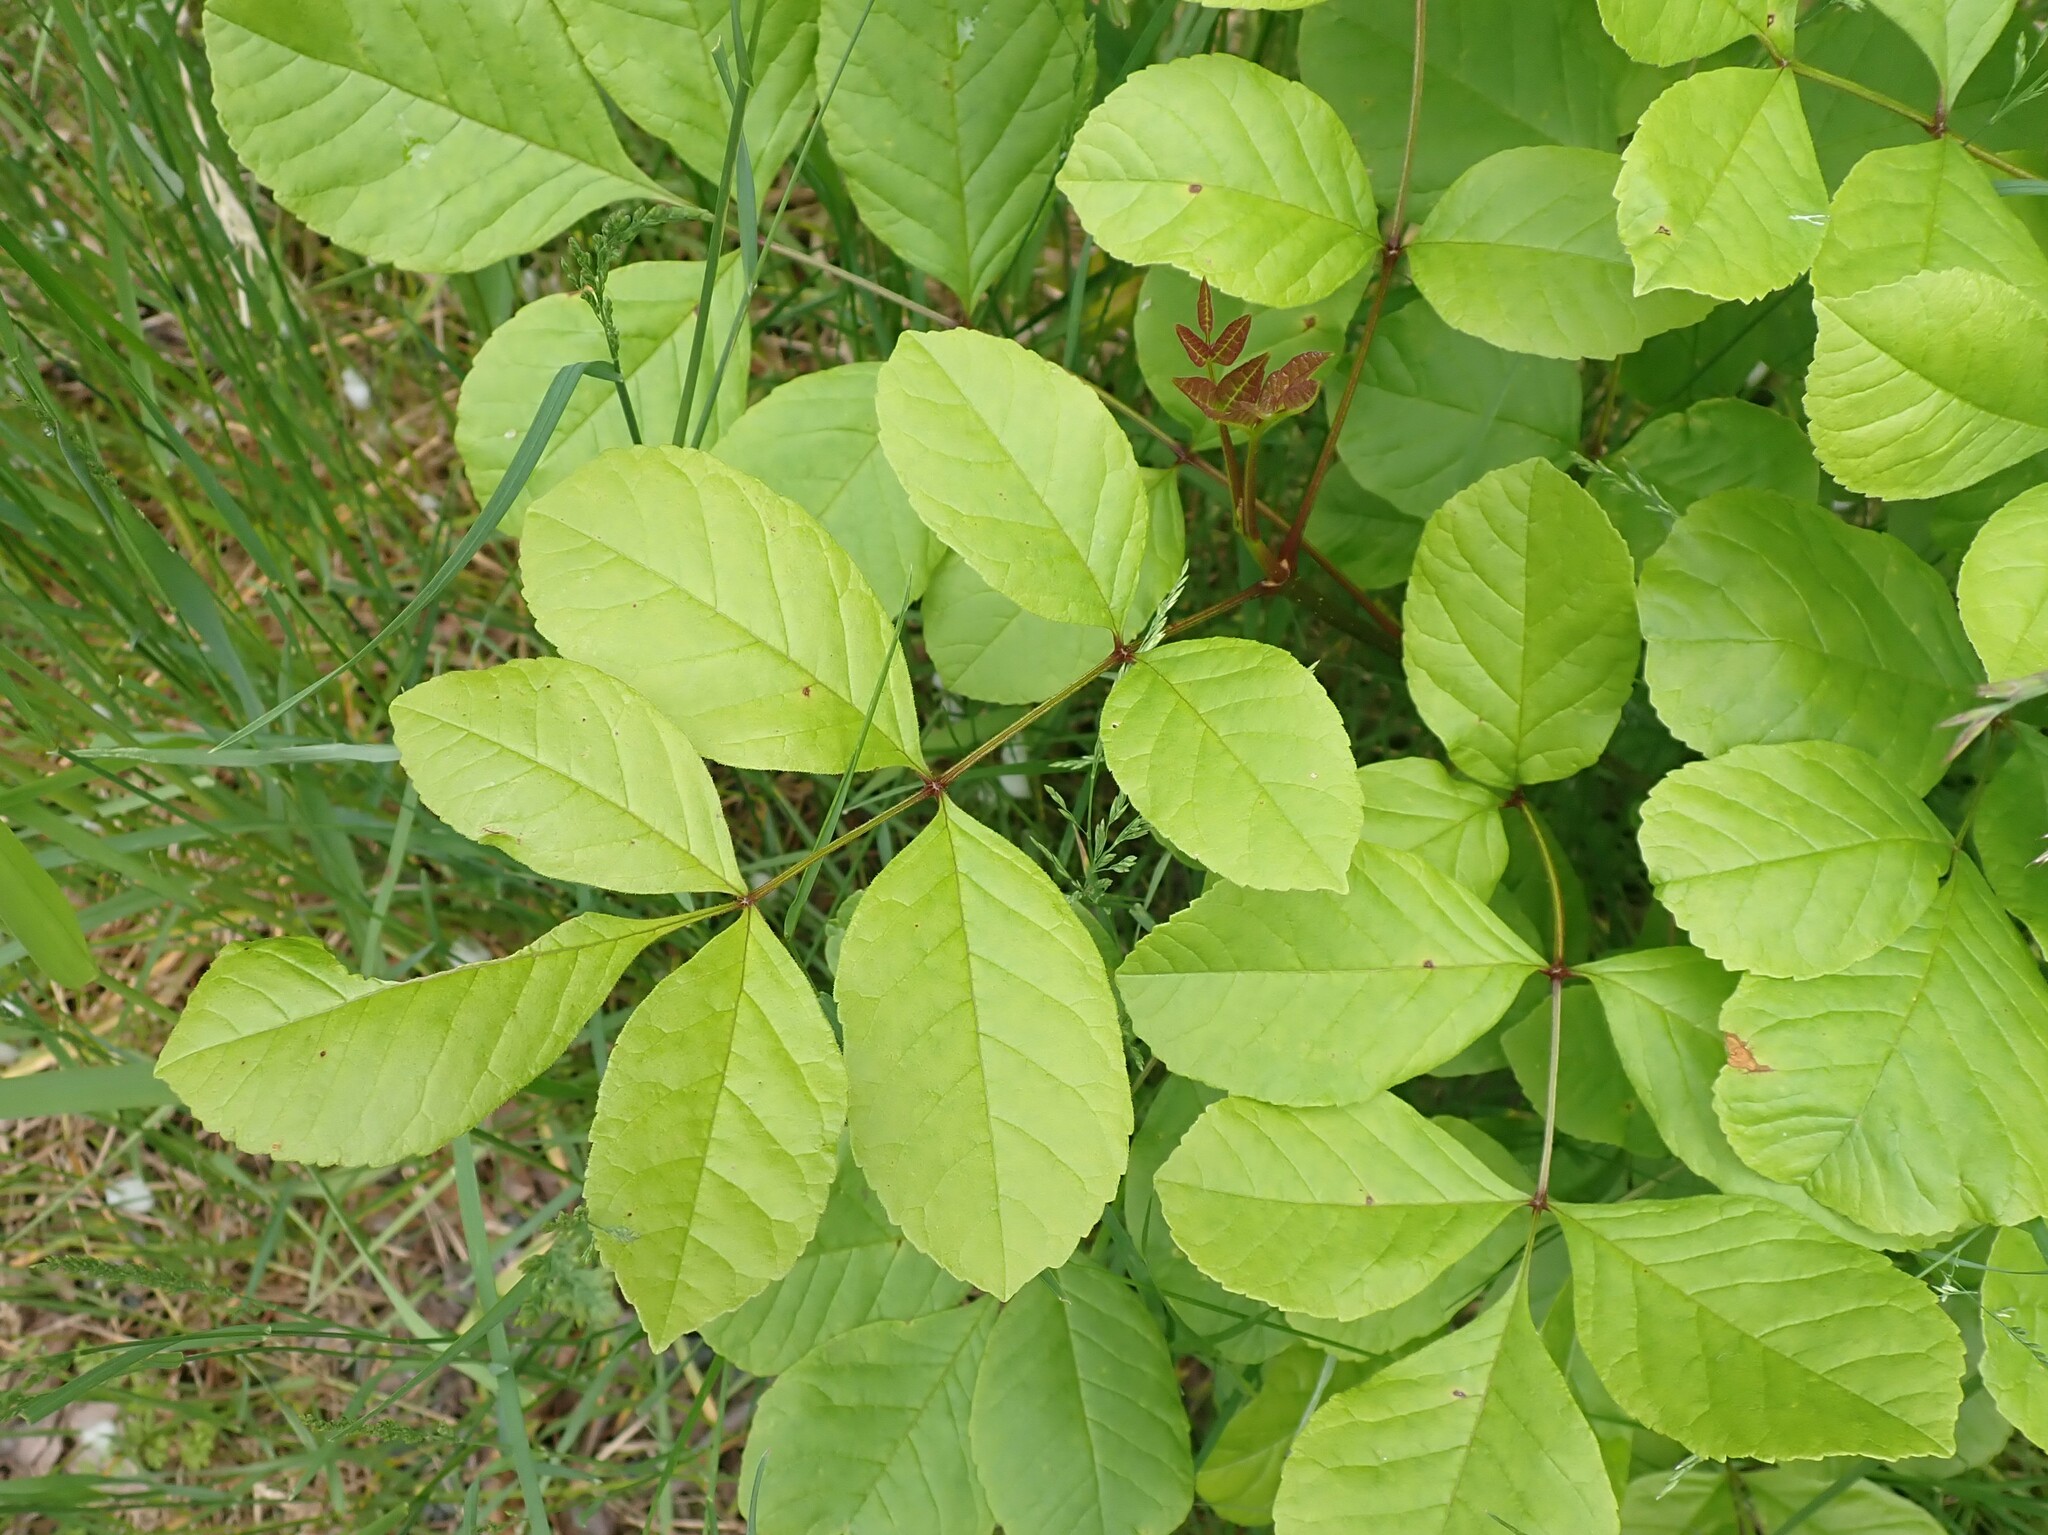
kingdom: Plantae
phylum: Tracheophyta
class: Magnoliopsida
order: Lamiales
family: Oleaceae
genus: Fraxinus
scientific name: Fraxinus latifolia
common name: Oregon ash
